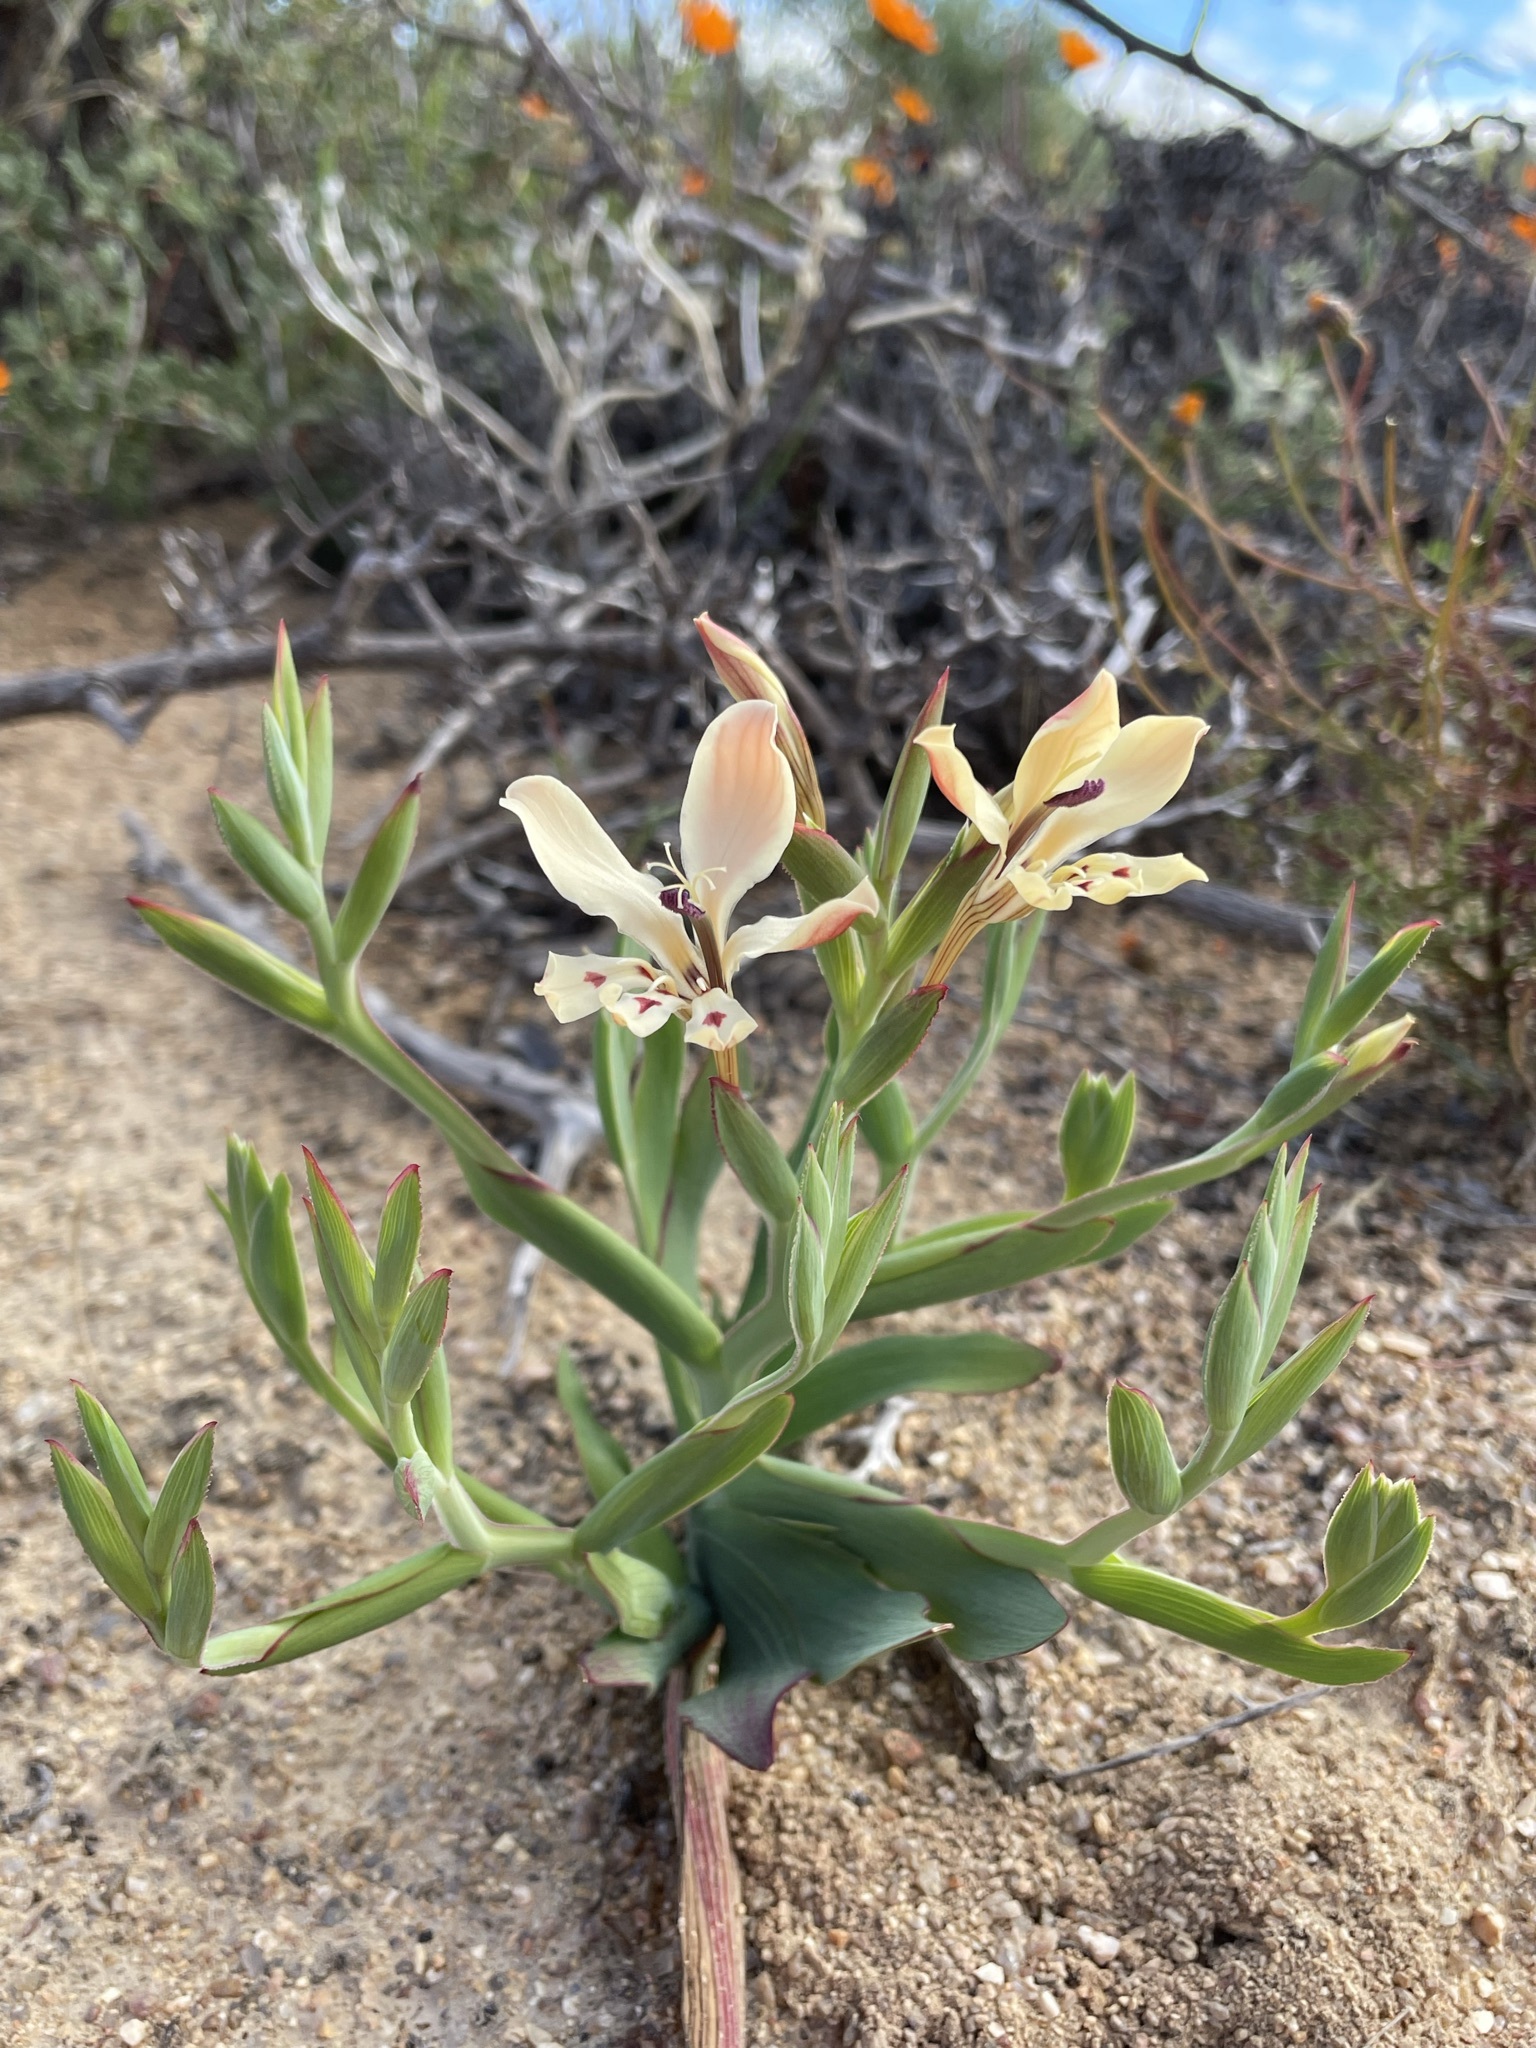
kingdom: Plantae
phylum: Tracheophyta
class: Liliopsida
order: Asparagales
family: Iridaceae
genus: Lapeirousia
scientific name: Lapeirousia fabricii
